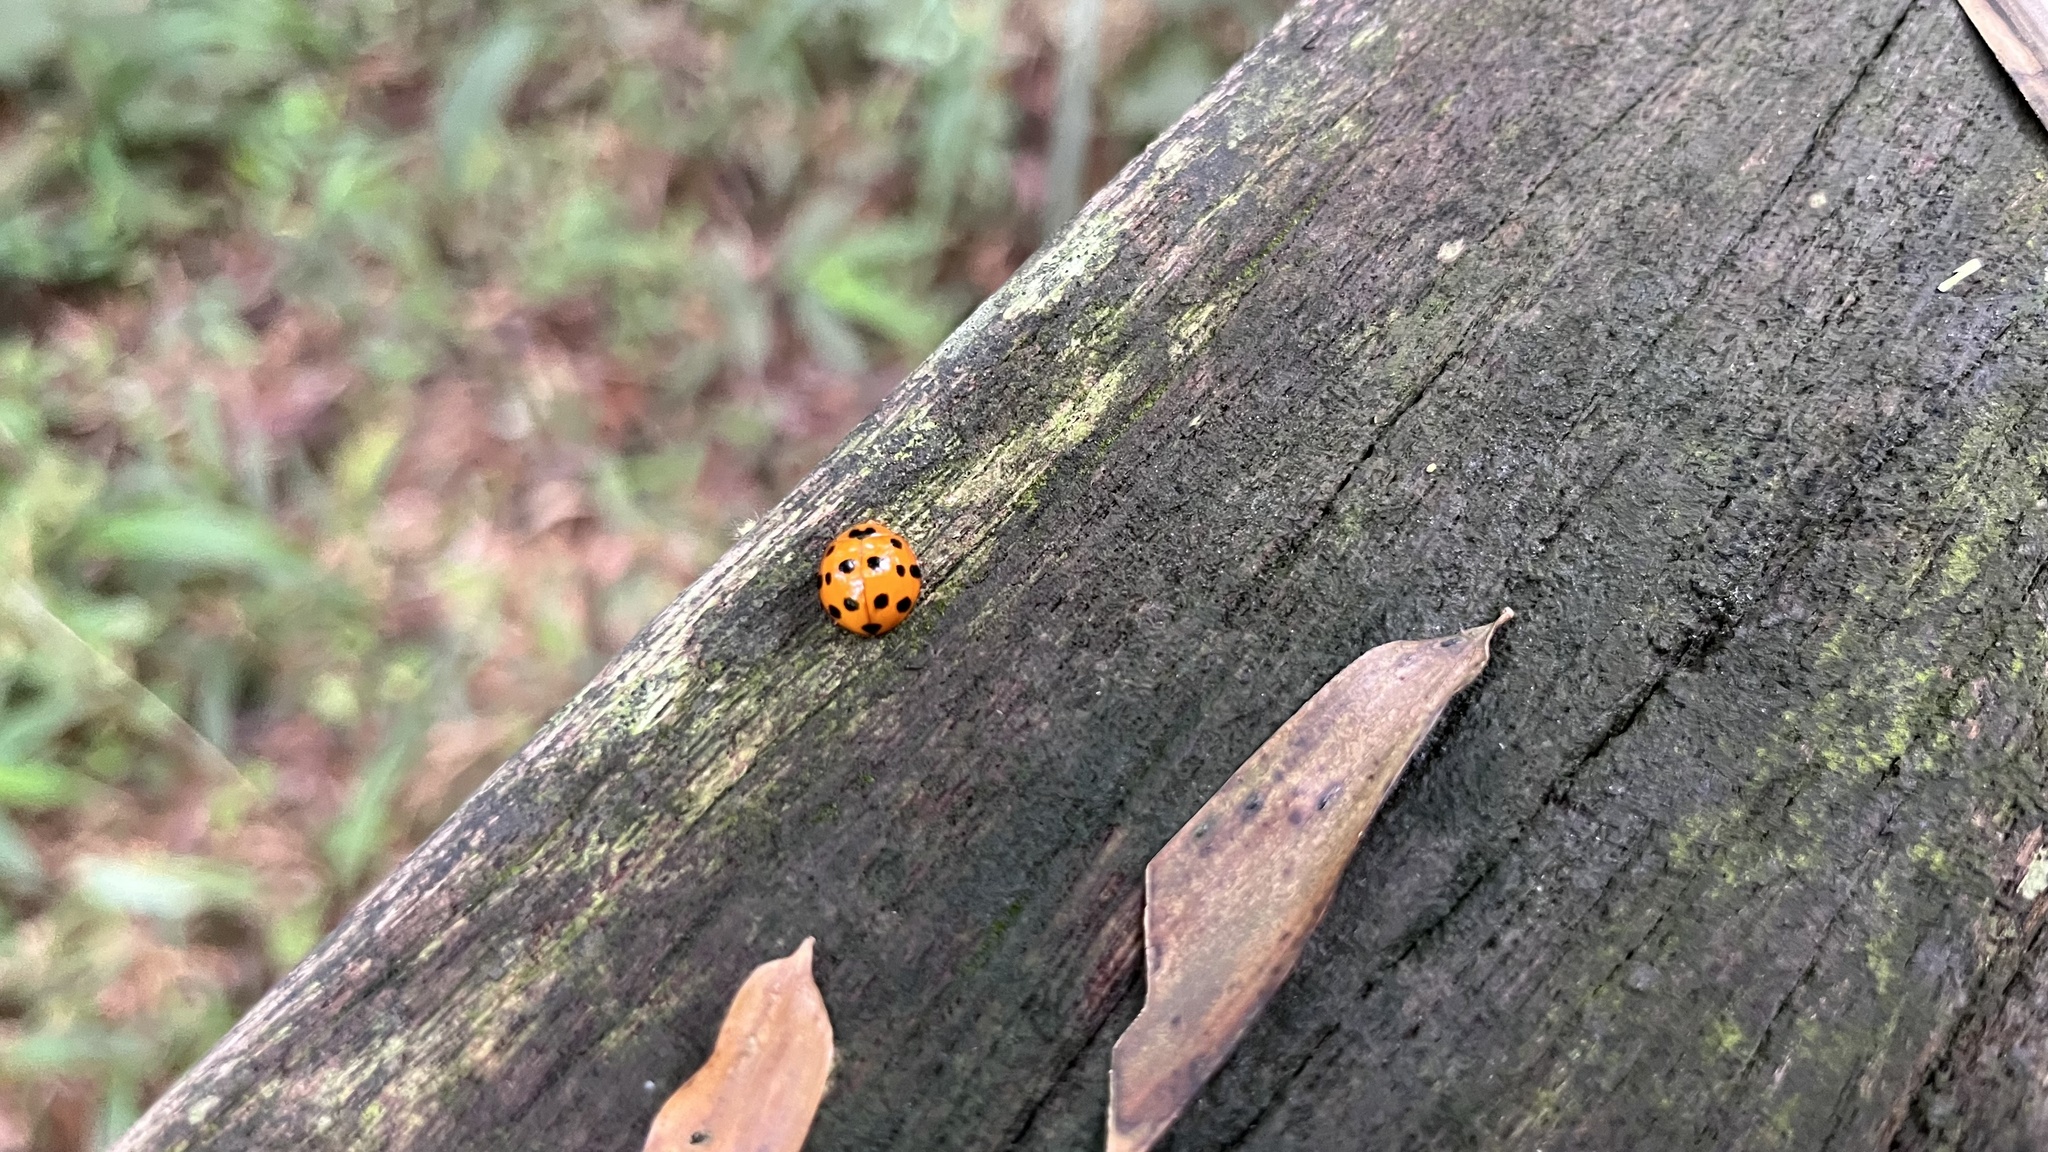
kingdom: Animalia
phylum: Arthropoda
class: Insecta
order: Coleoptera
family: Coccinellidae
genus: Harmonia
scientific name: Harmonia dimidiata
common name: Ladybird beetle
